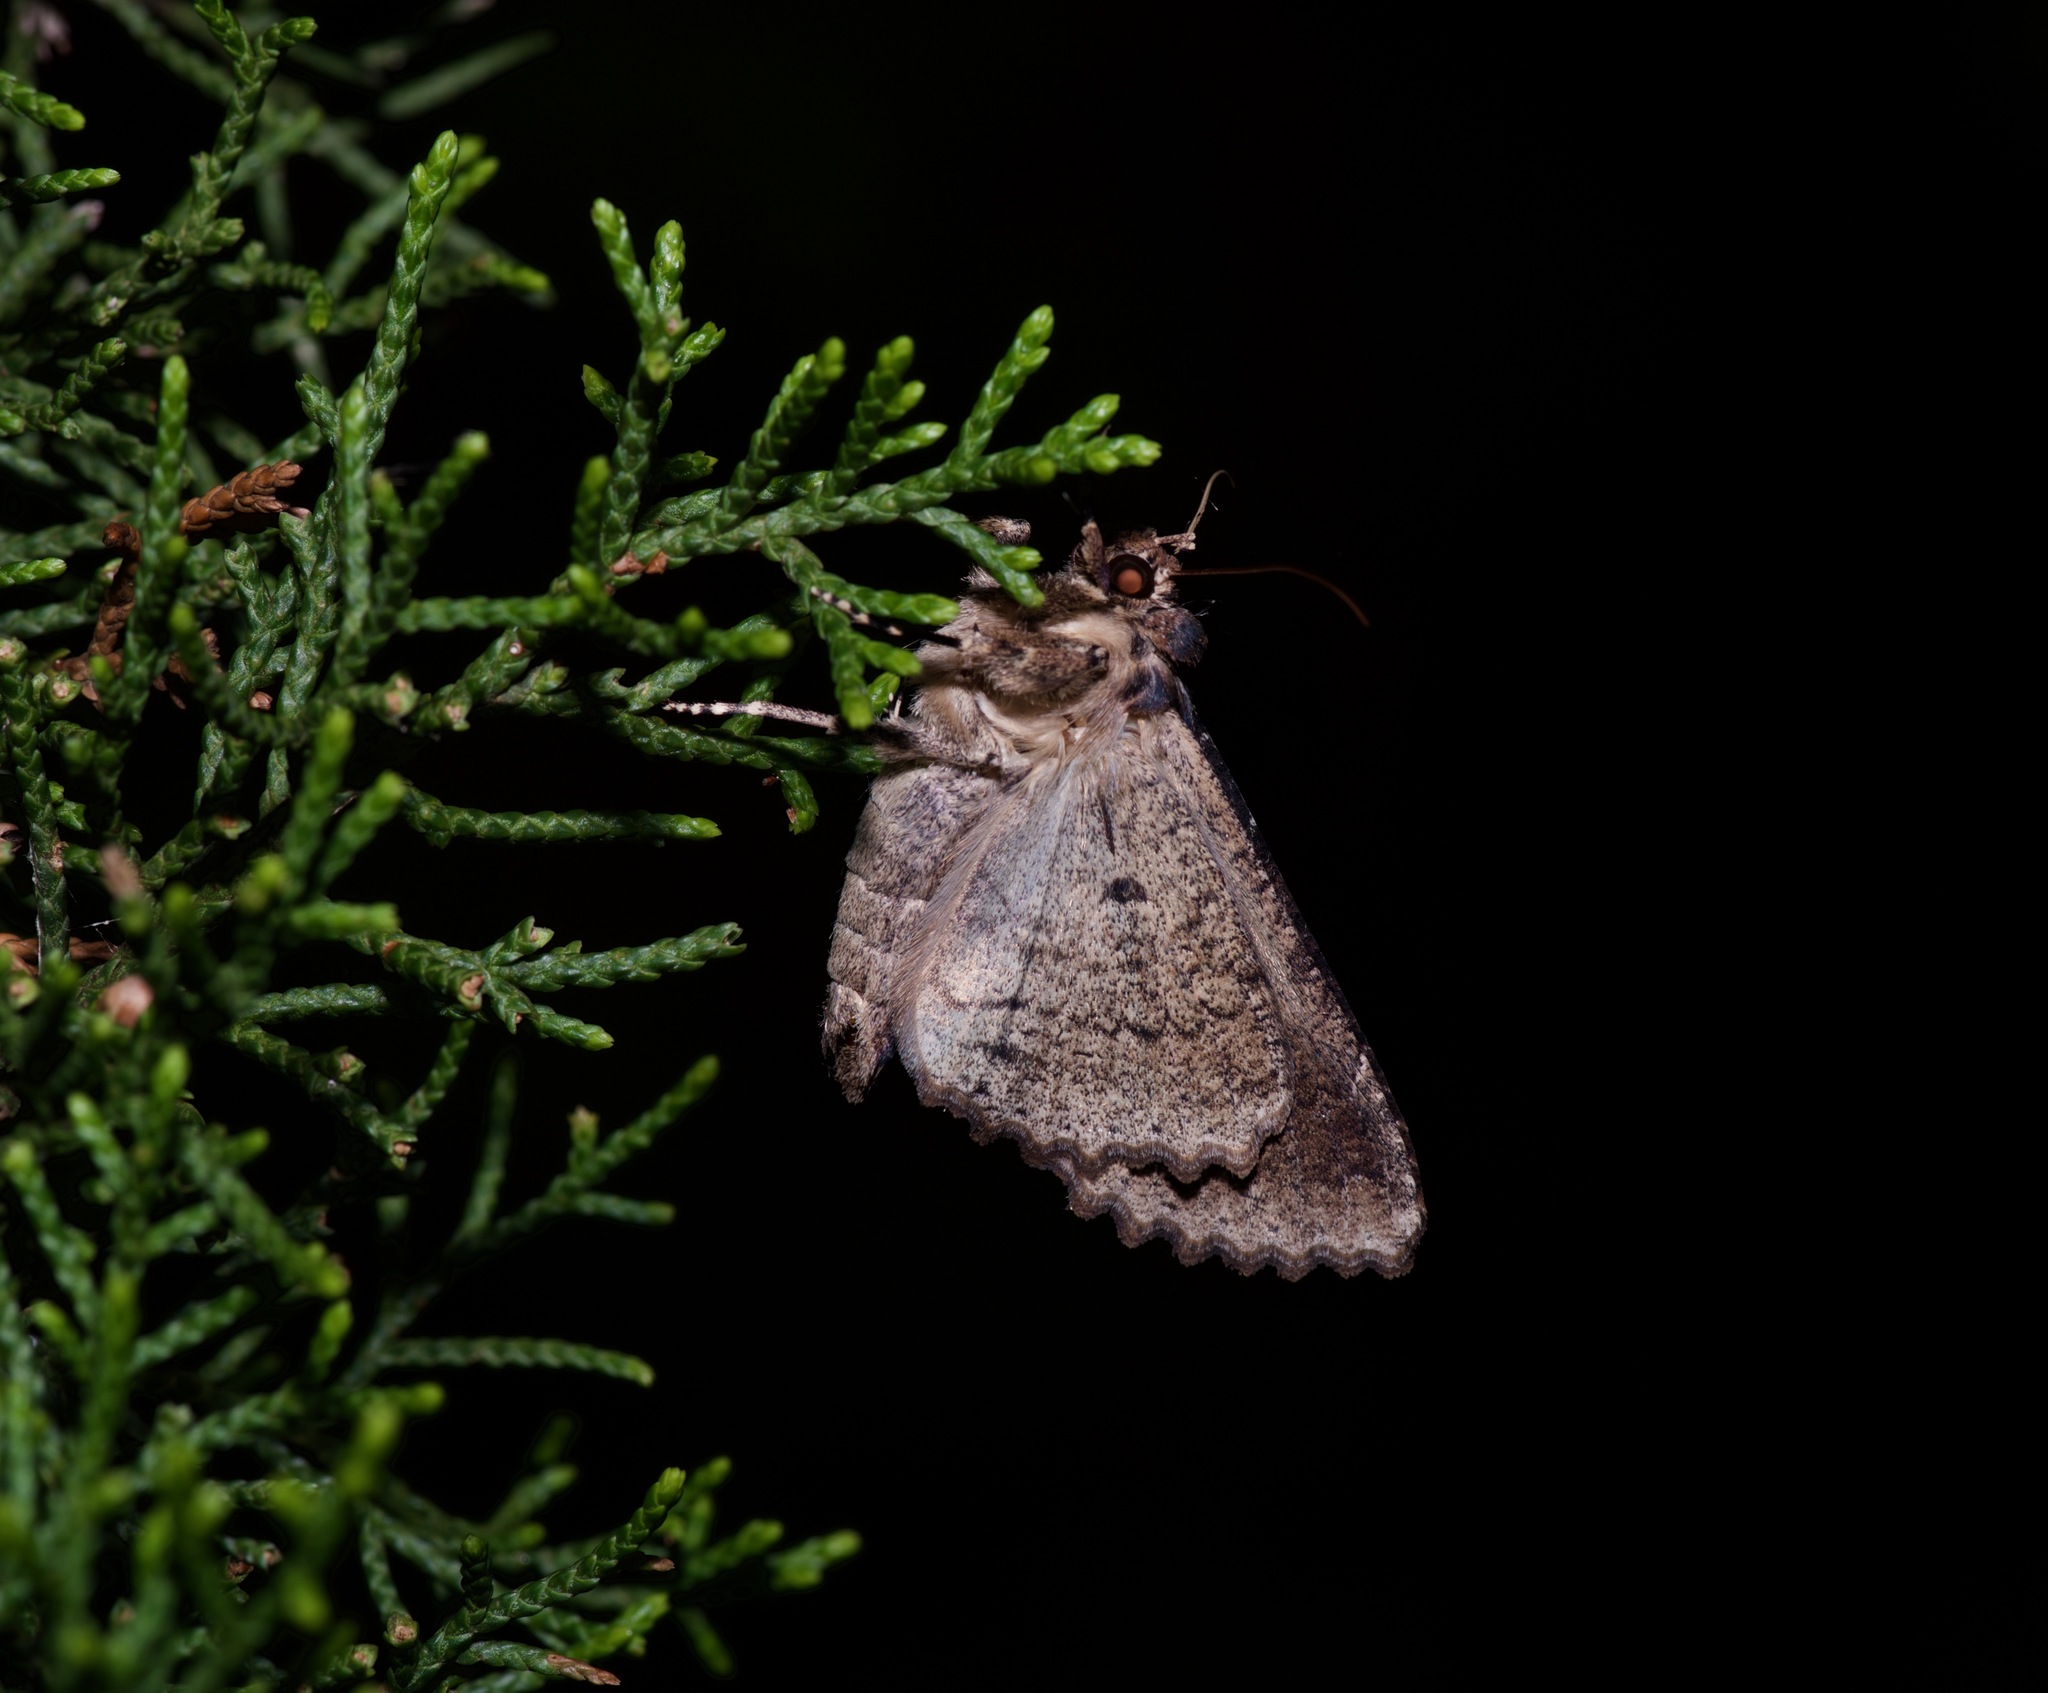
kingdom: Animalia
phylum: Arthropoda
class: Insecta
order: Lepidoptera
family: Erebidae
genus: Zale
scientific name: Zale minerea
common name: Colorful zale moth
